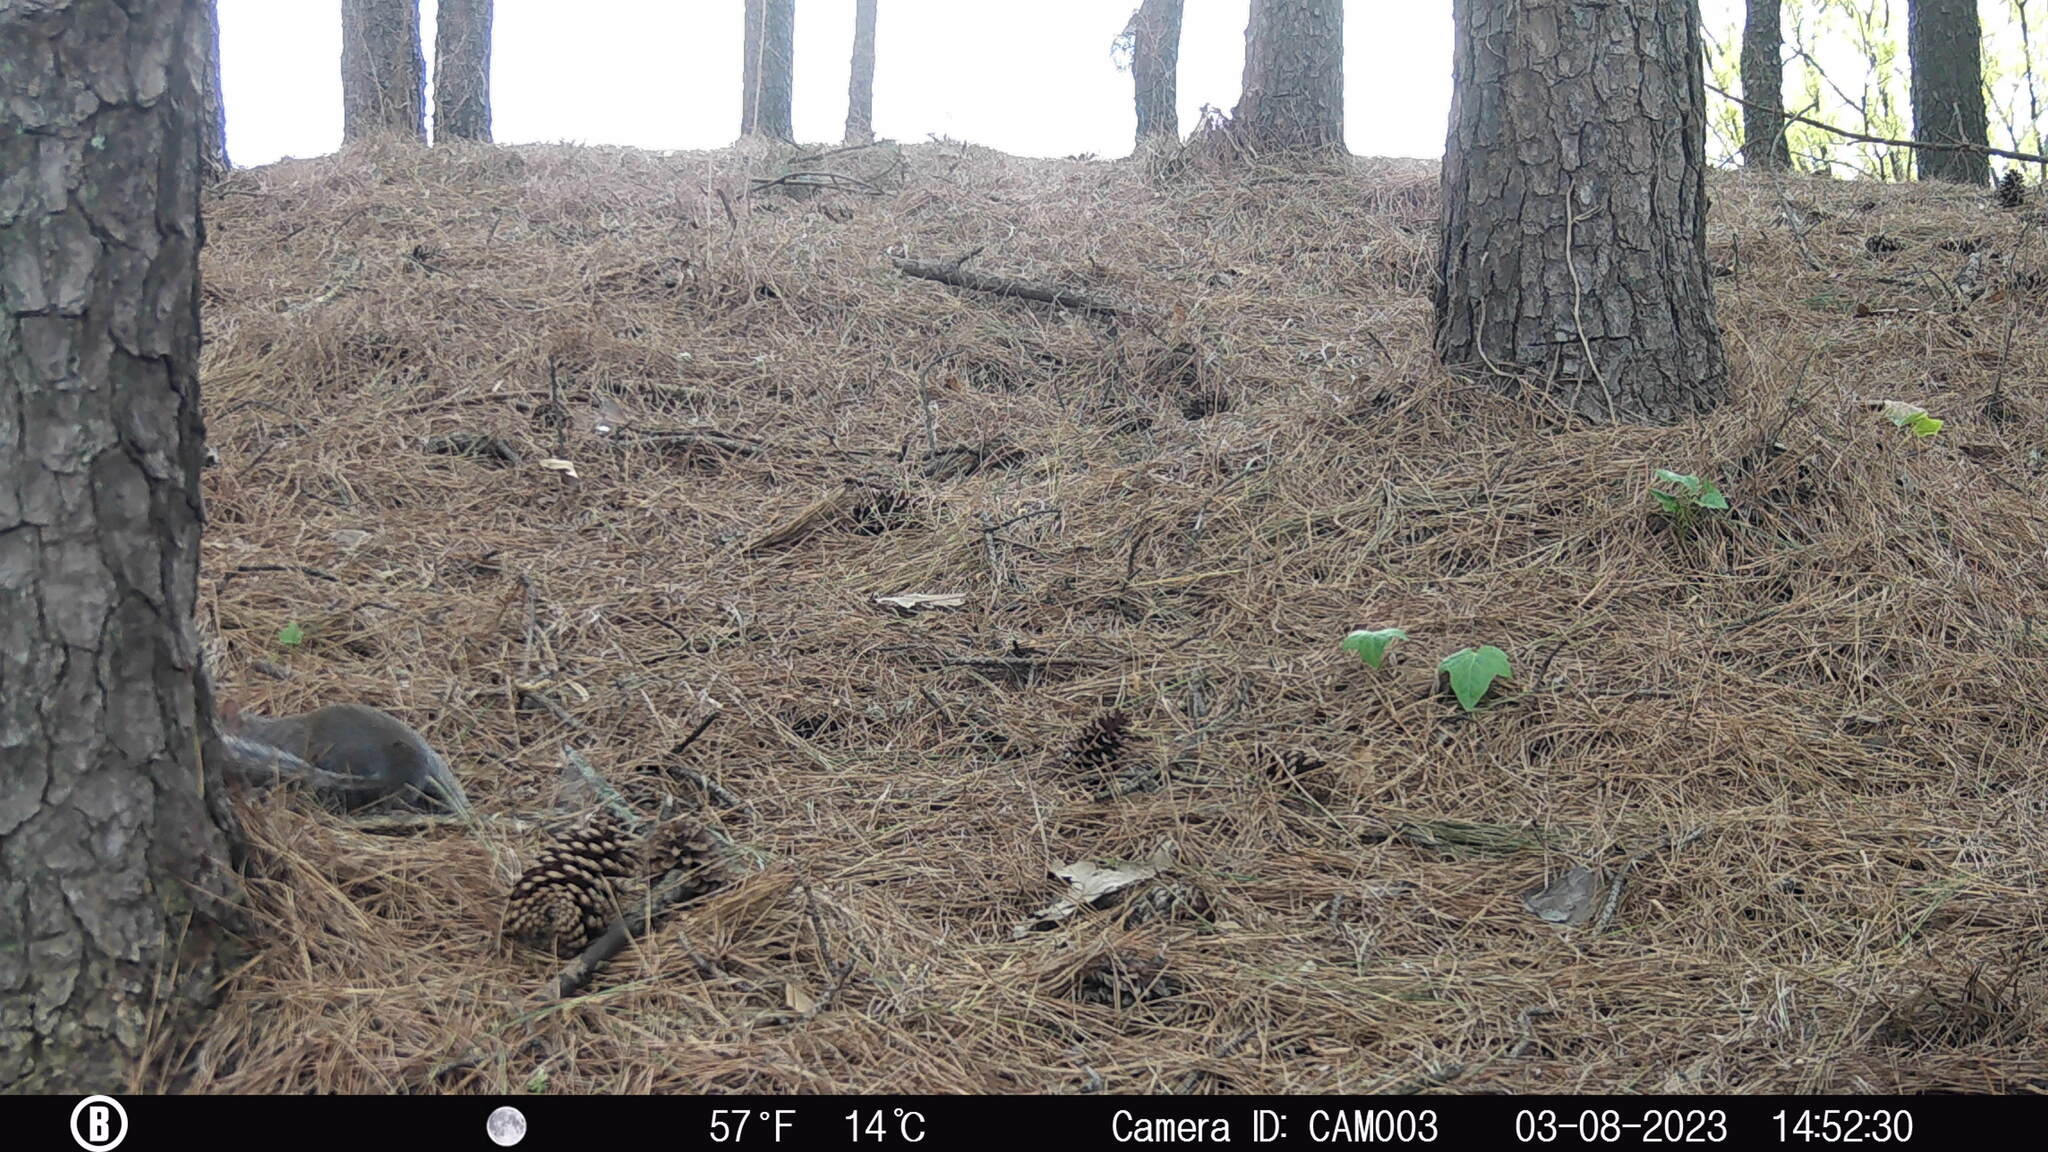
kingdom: Animalia
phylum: Chordata
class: Mammalia
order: Rodentia
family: Sciuridae
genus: Sciurus
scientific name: Sciurus carolinensis
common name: Eastern gray squirrel
